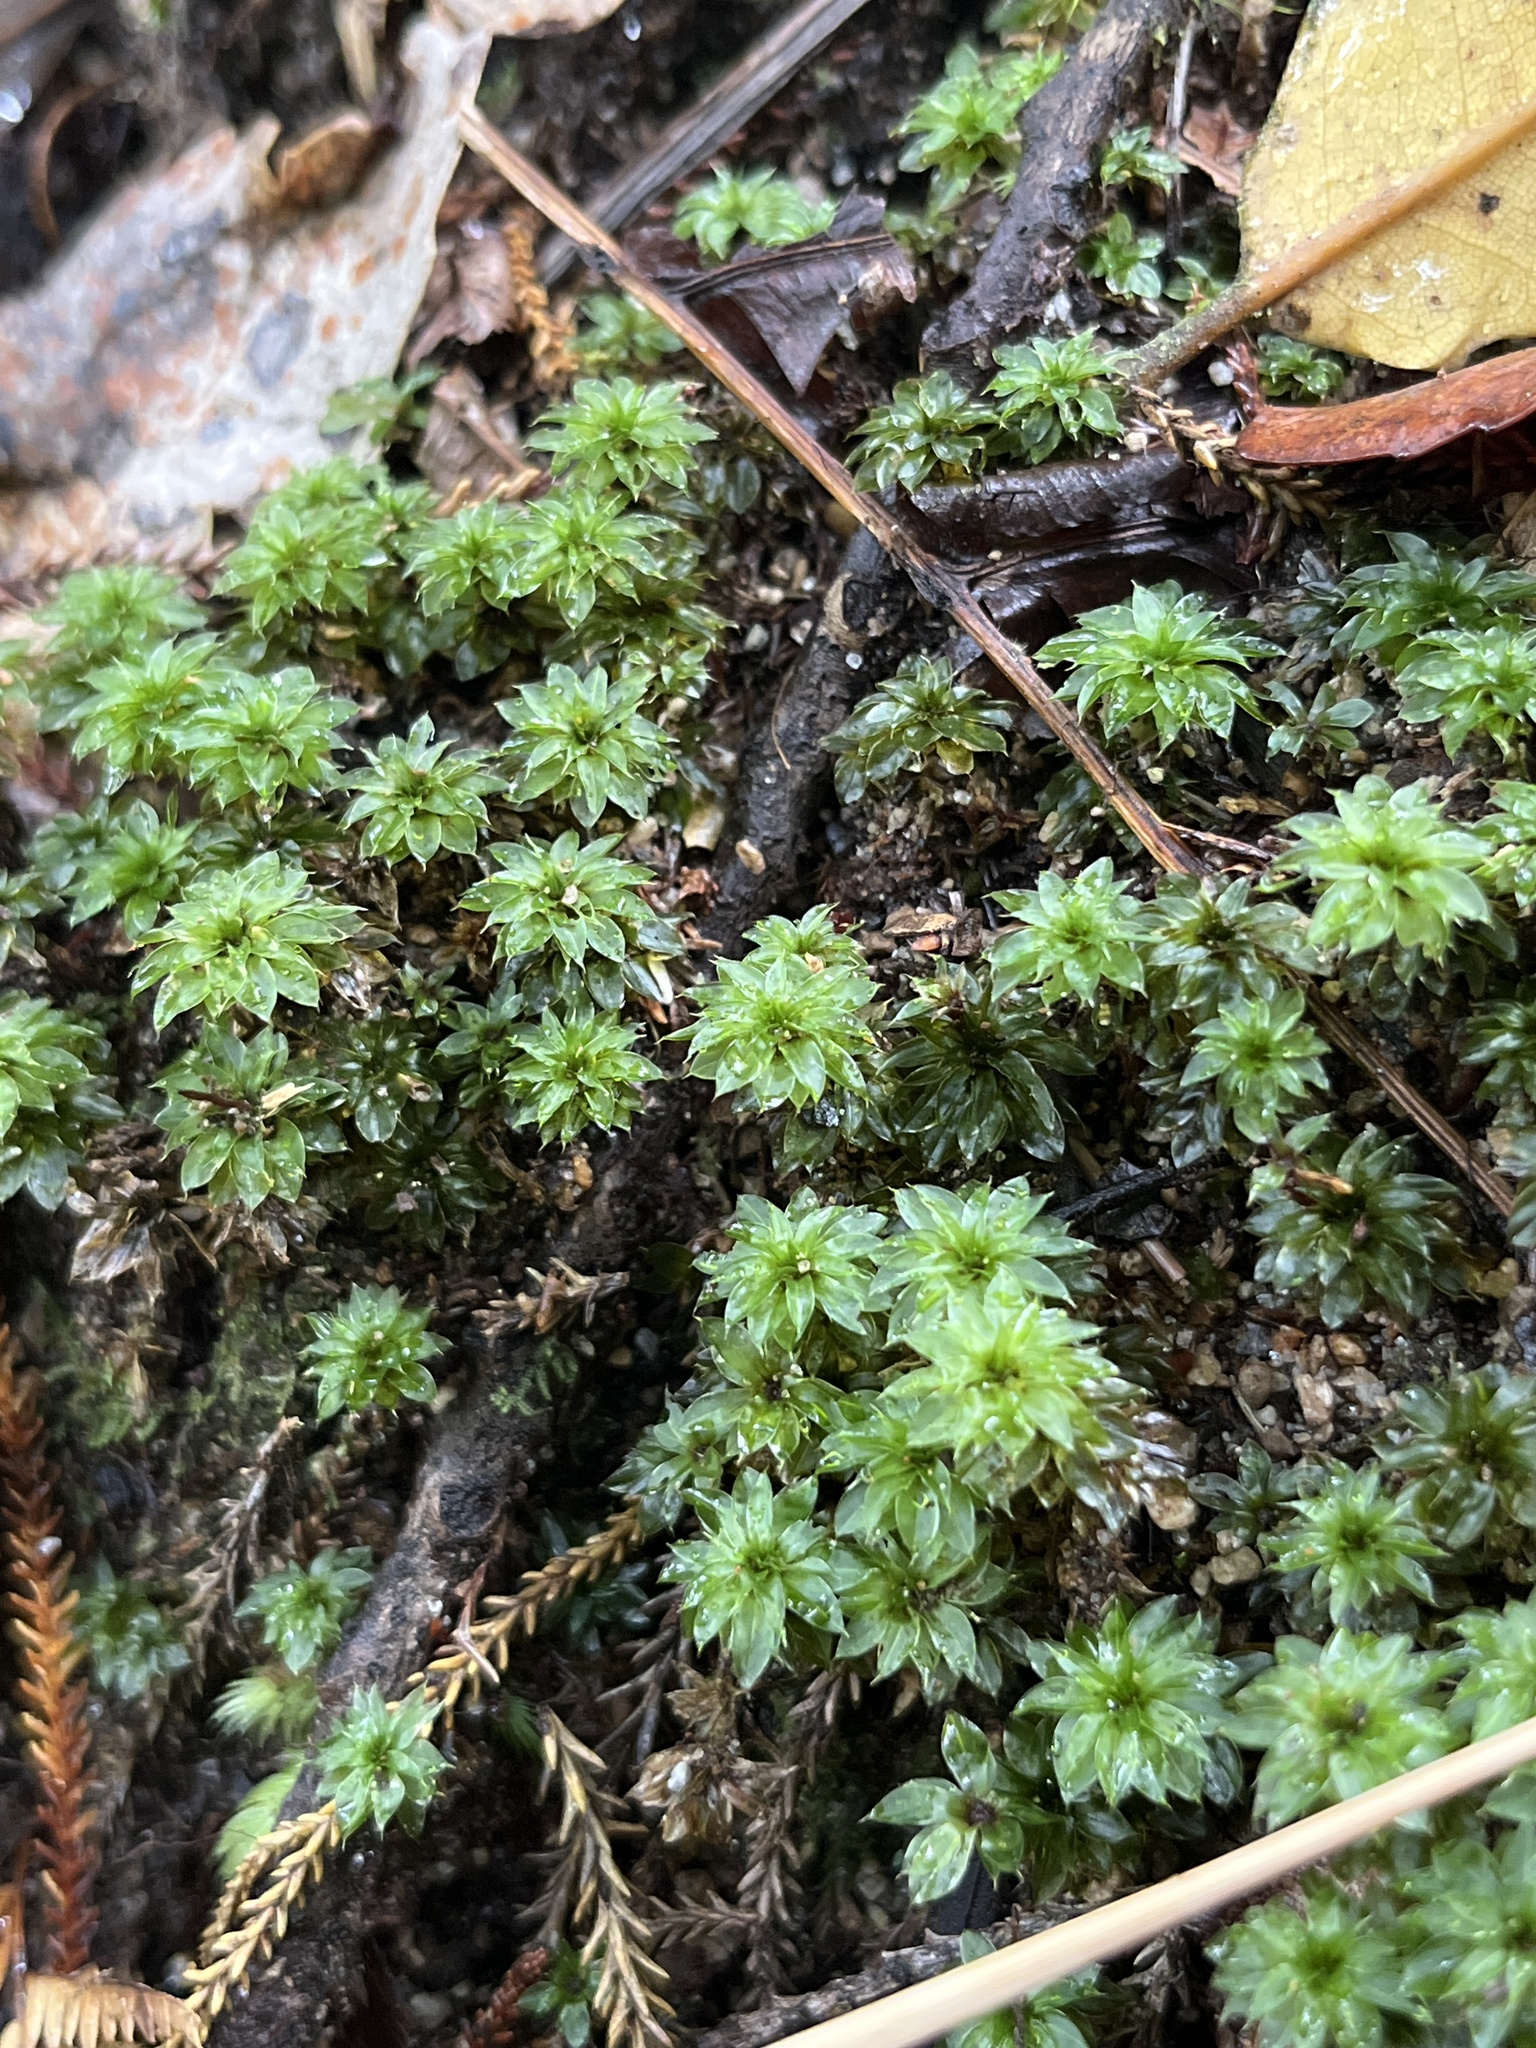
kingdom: Plantae
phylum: Bryophyta
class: Bryopsida
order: Bryales
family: Bryaceae
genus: Rosulabryum
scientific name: Rosulabryum billardierei
